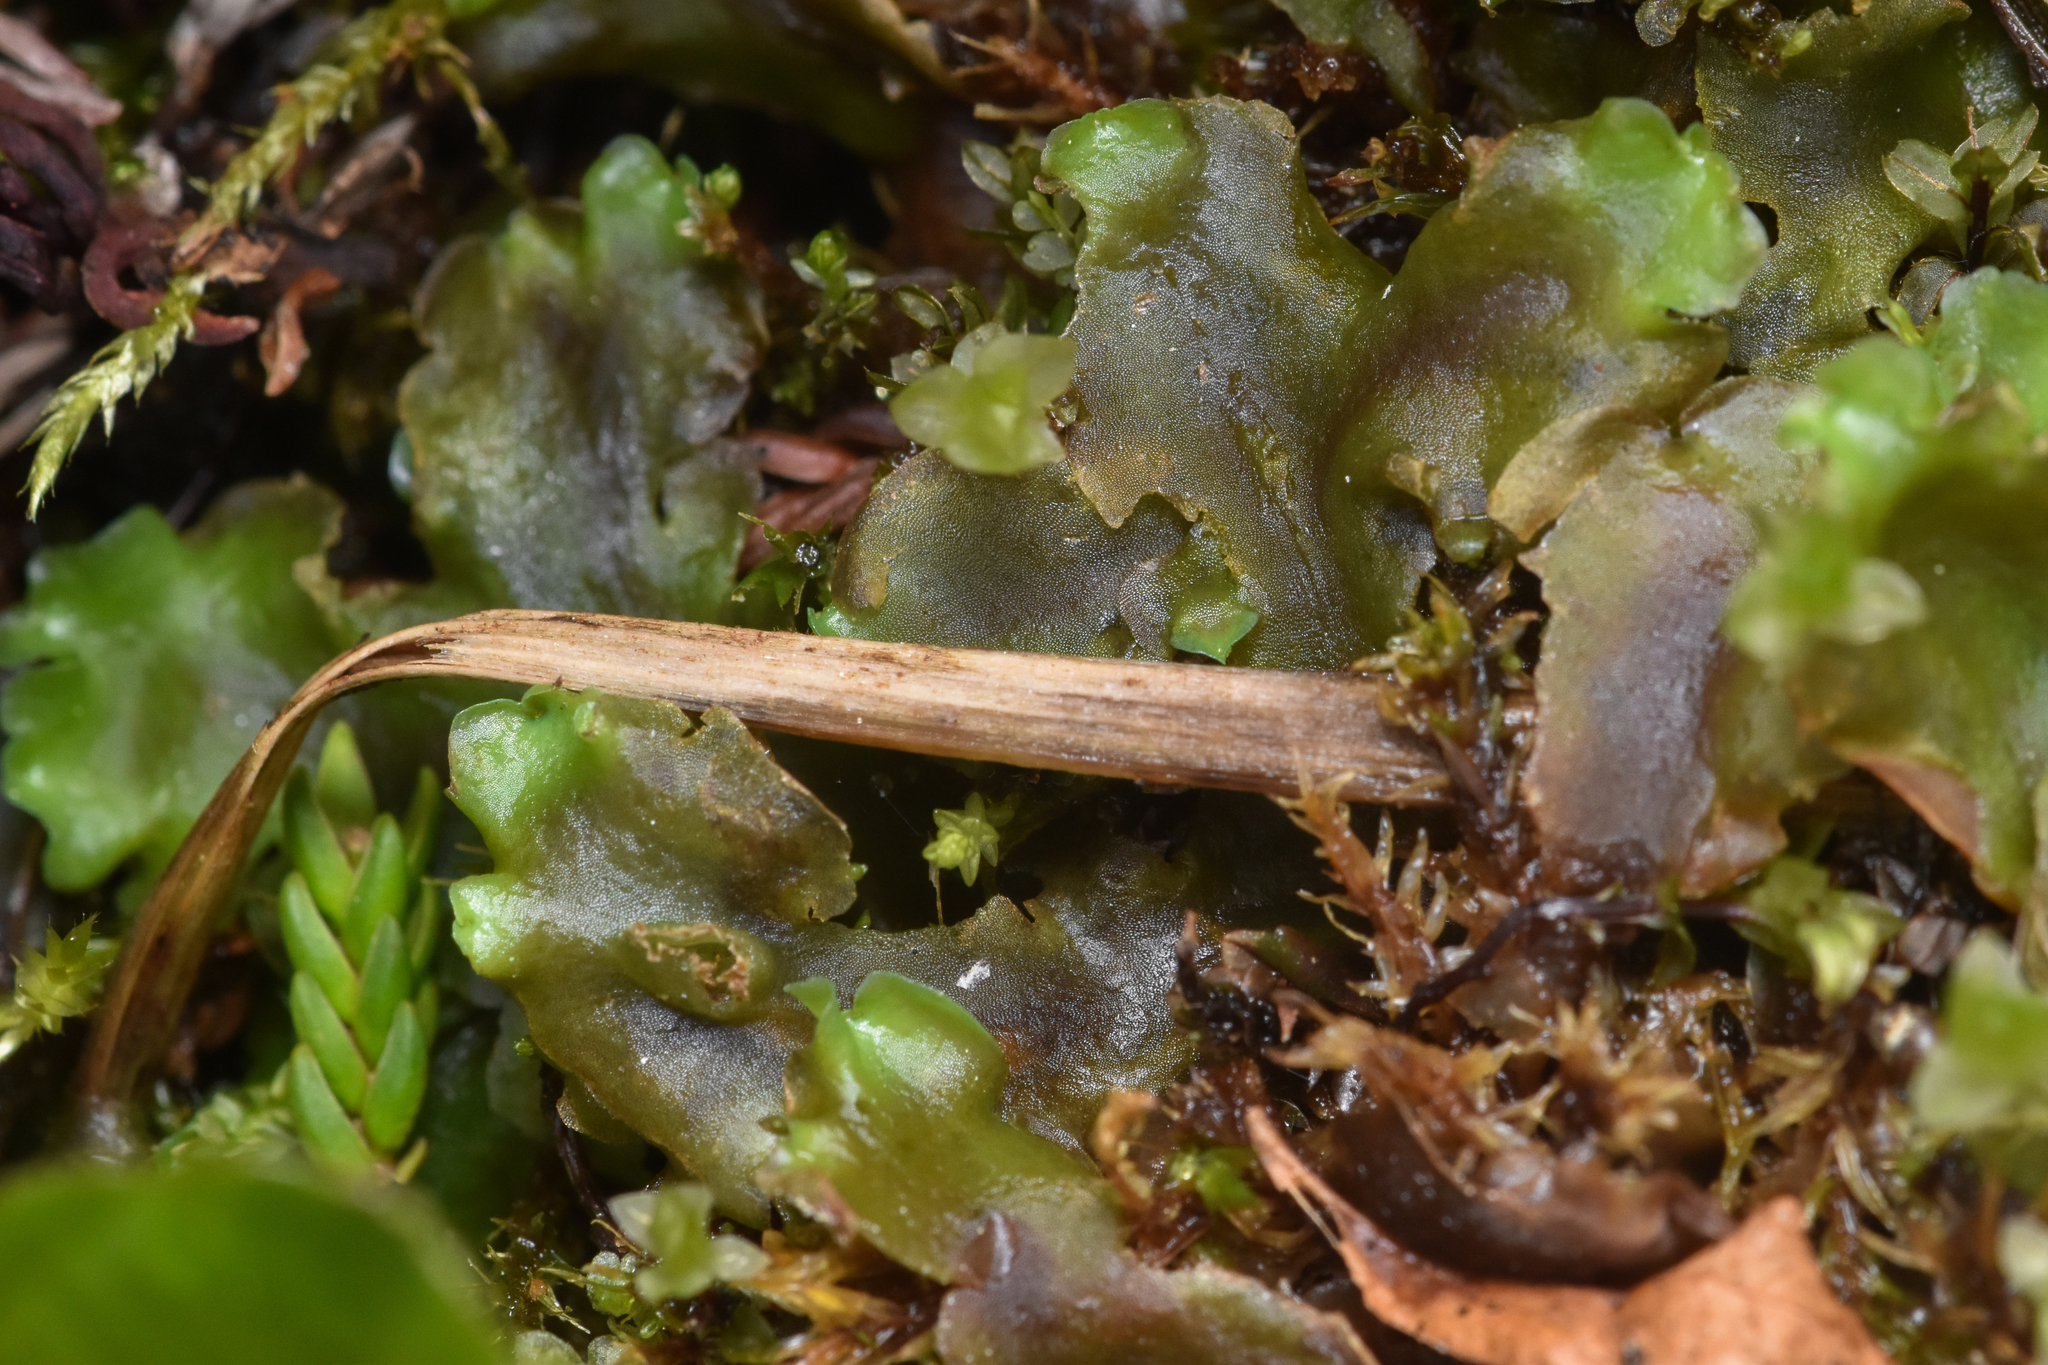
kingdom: Plantae
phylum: Marchantiophyta
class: Jungermanniopsida
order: Pelliales
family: Pelliaceae
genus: Pellia
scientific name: Pellia neesiana
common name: Nees  pellia
